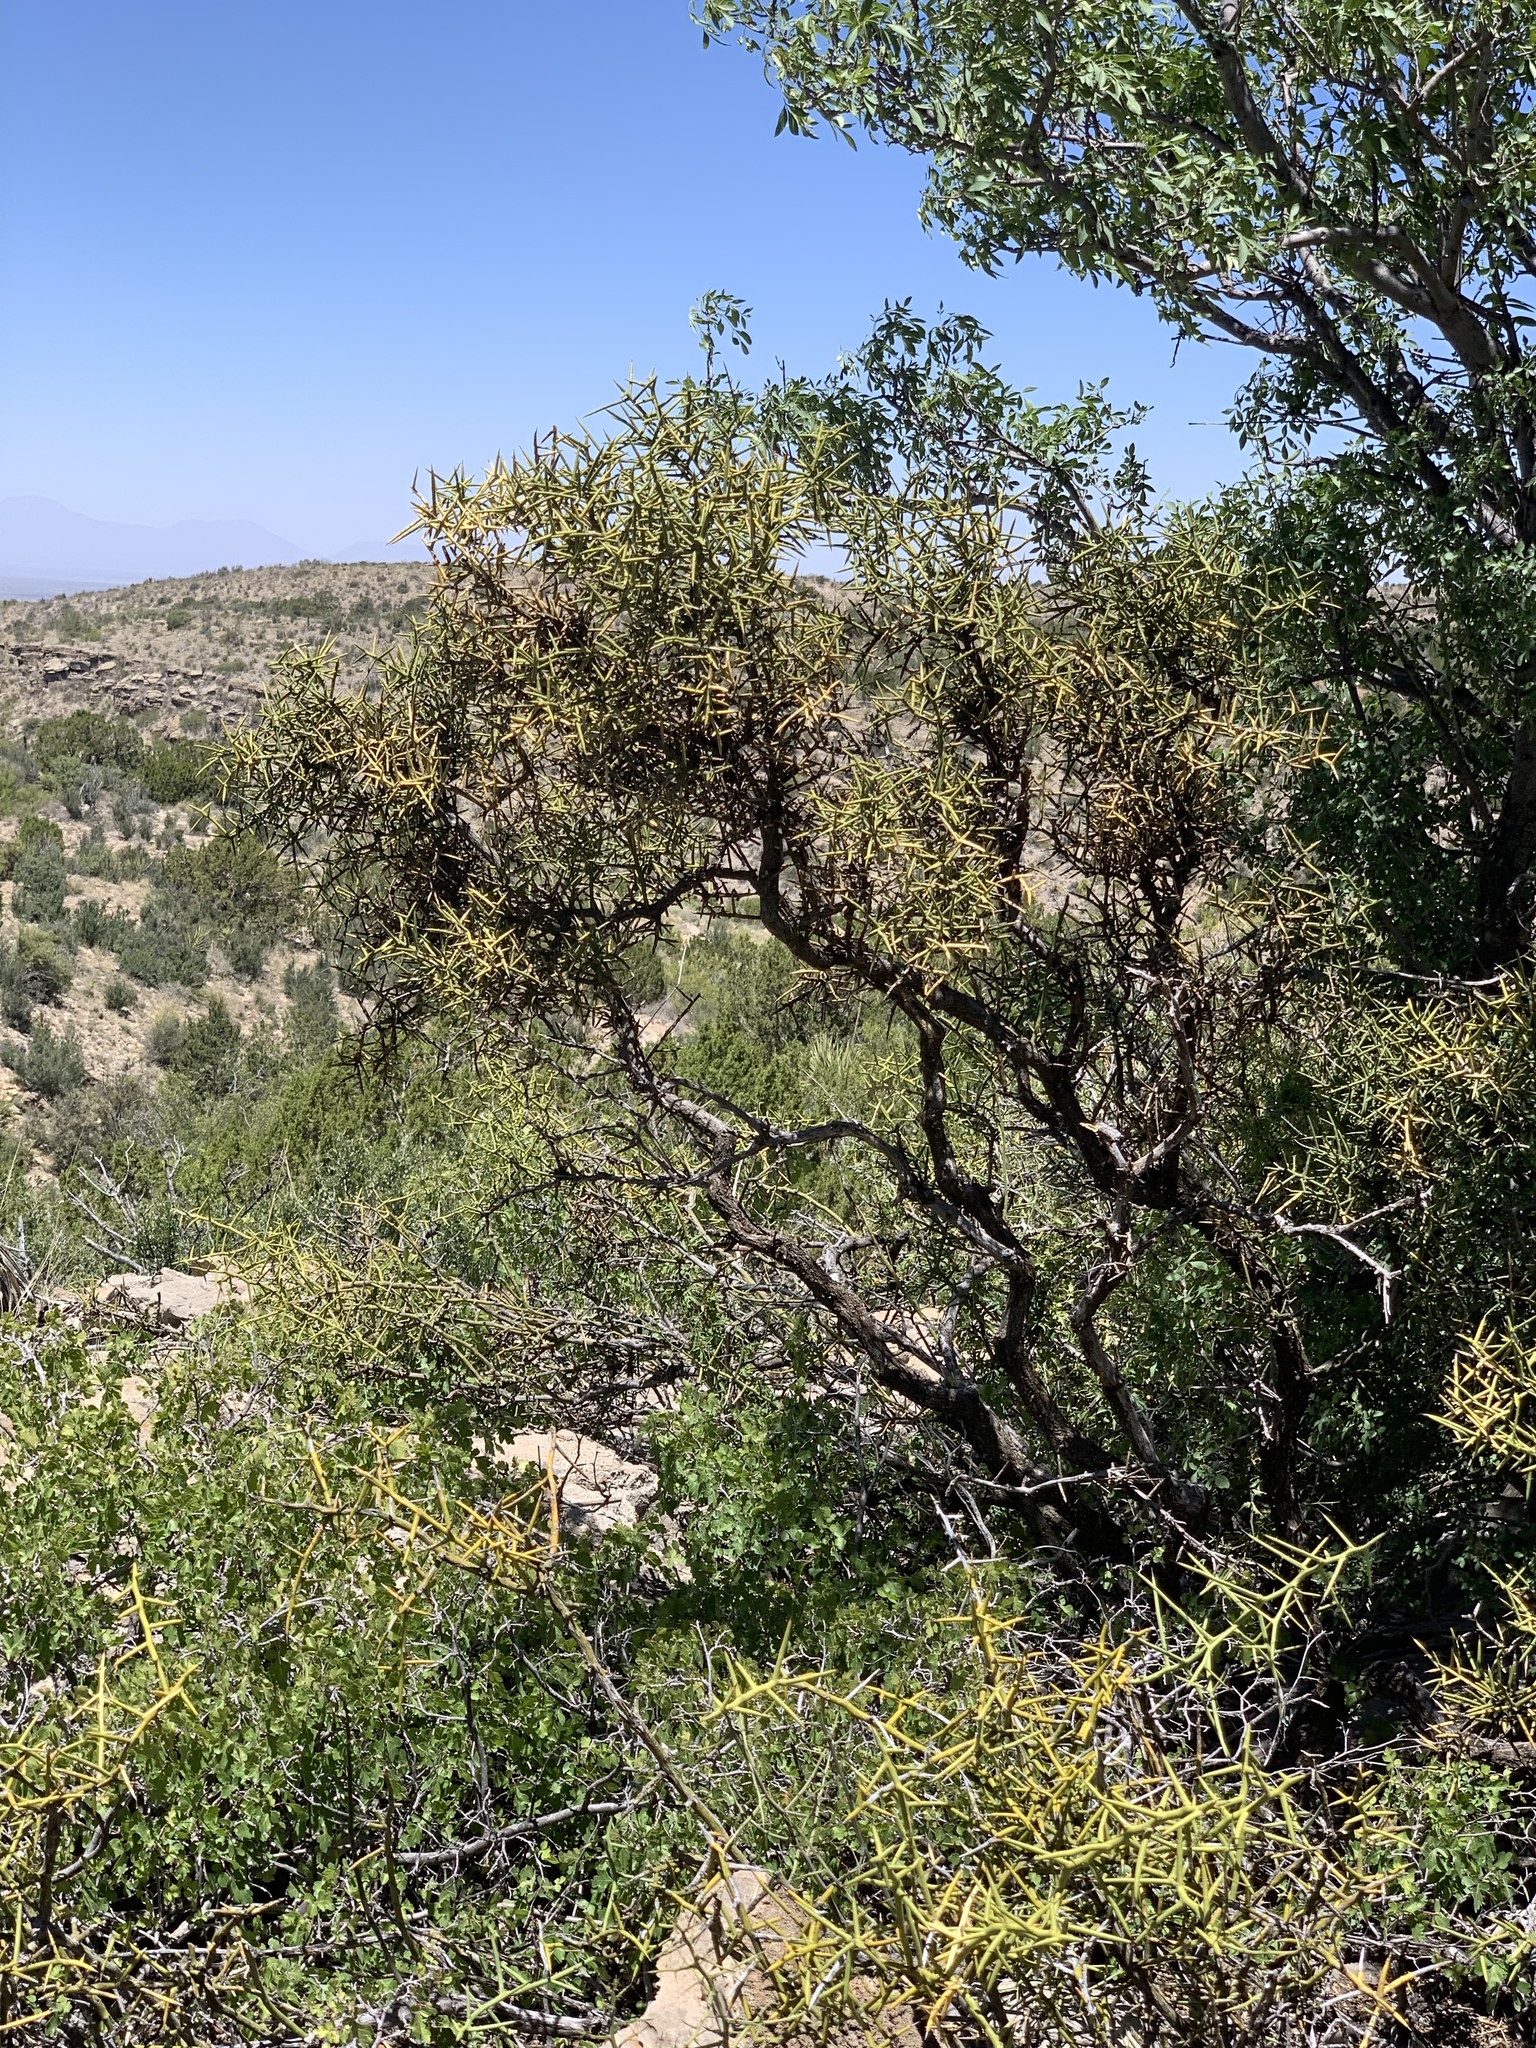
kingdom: Plantae
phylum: Tracheophyta
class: Magnoliopsida
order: Brassicales
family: Koeberliniaceae
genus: Koeberlinia
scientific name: Koeberlinia spinosa
